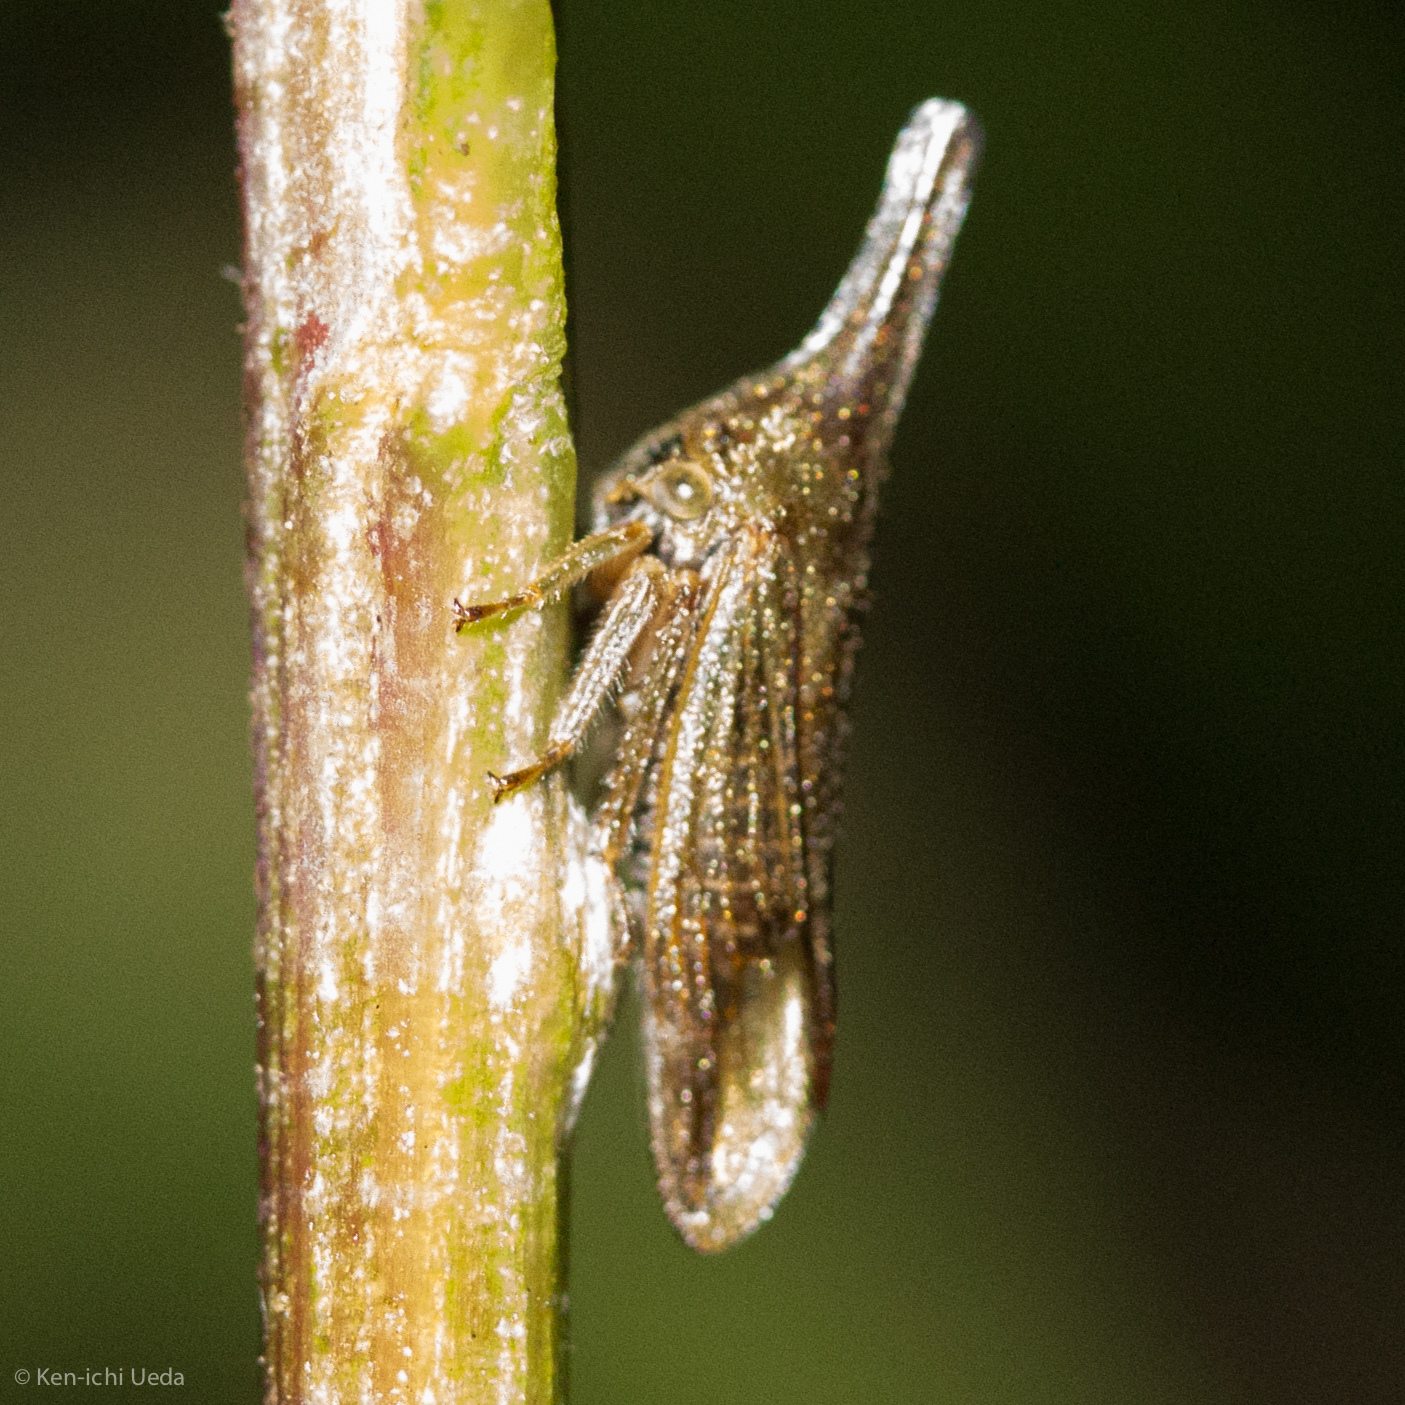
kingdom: Animalia
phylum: Arthropoda
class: Insecta
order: Hemiptera
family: Membracidae
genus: Aconophora
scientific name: Aconophora compressa
